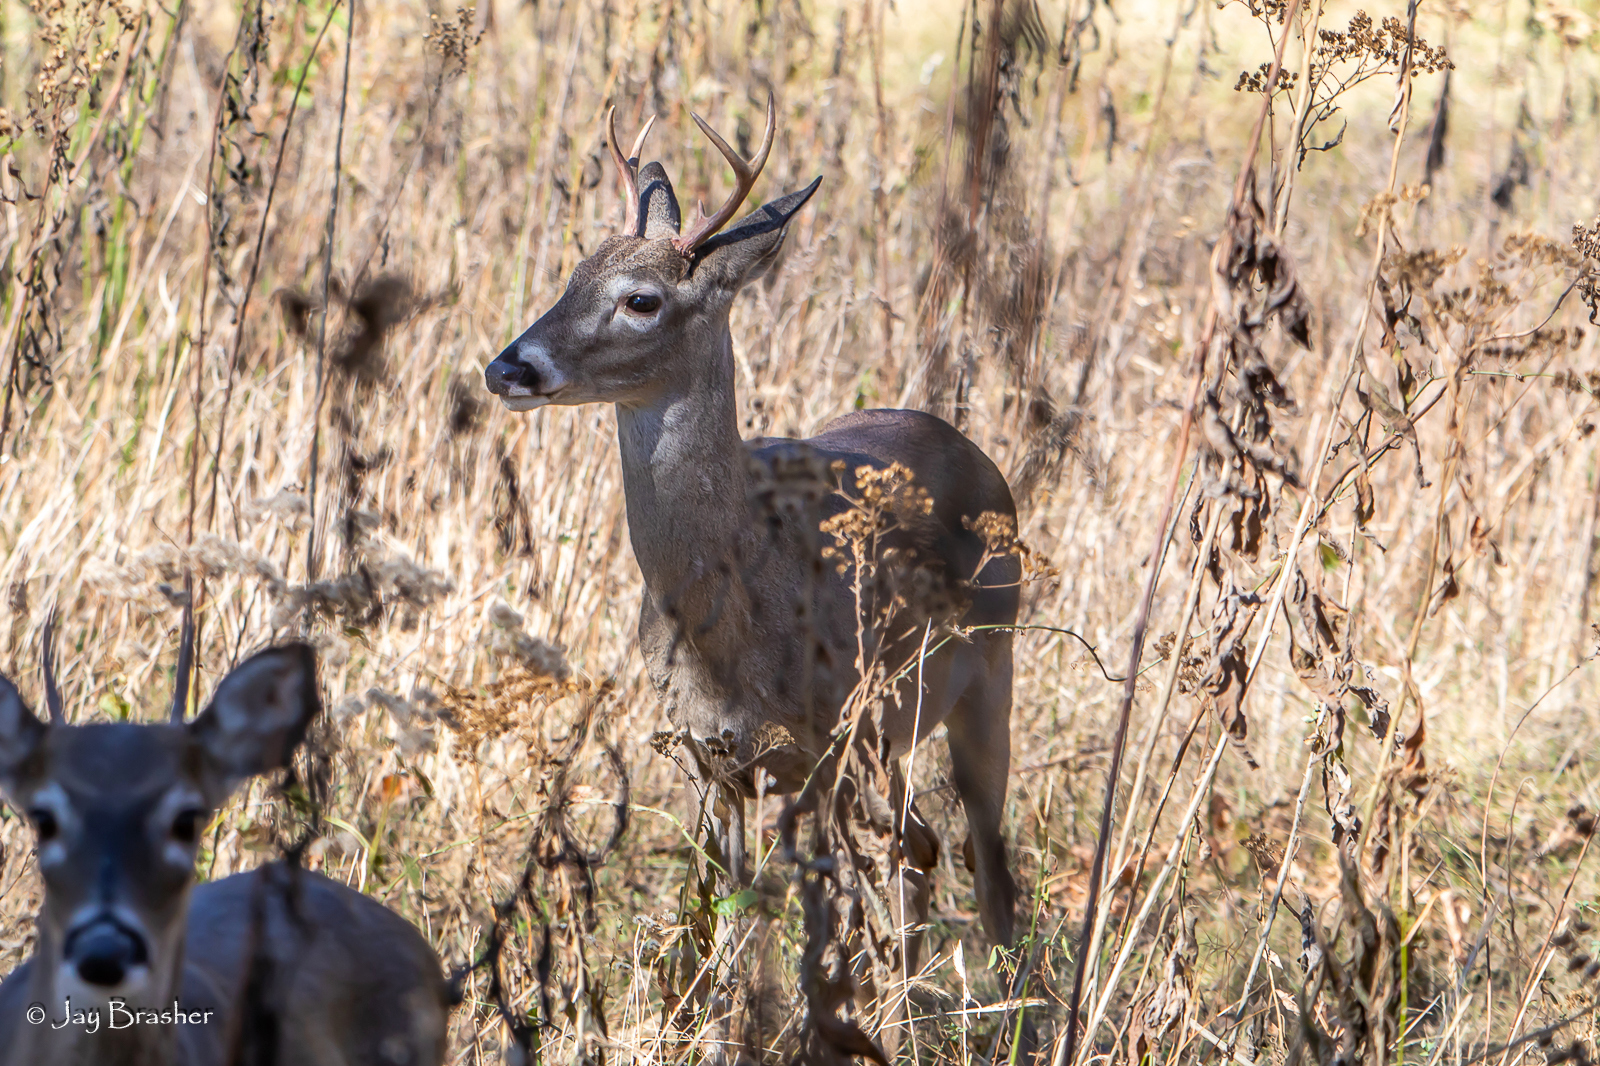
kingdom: Animalia
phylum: Chordata
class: Mammalia
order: Artiodactyla
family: Cervidae
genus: Odocoileus
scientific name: Odocoileus virginianus
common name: White-tailed deer
